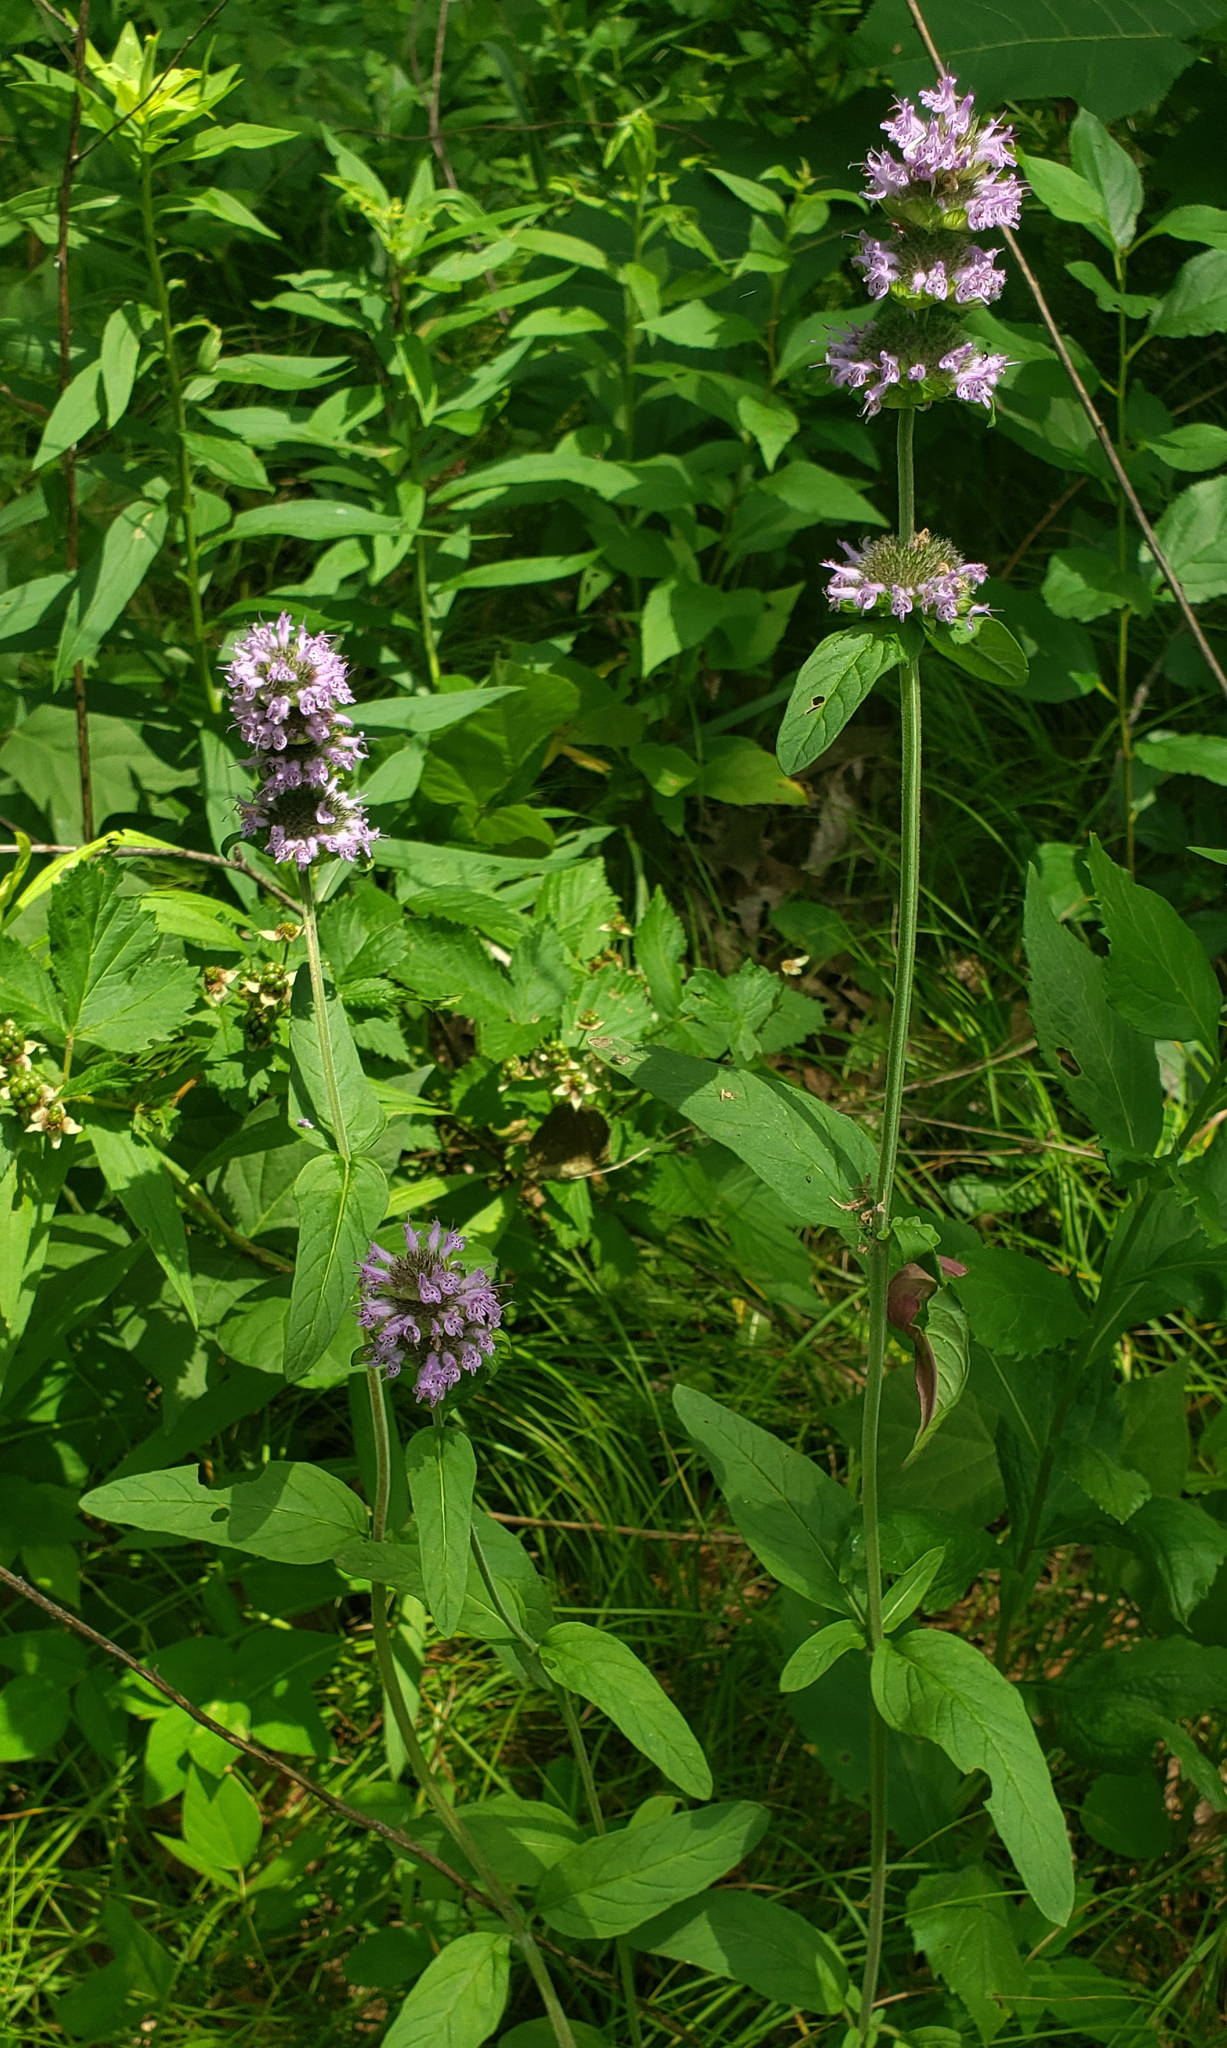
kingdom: Plantae
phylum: Tracheophyta
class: Magnoliopsida
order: Lamiales
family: Lamiaceae
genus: Blephilia
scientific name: Blephilia ciliata
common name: Downy blephilia
